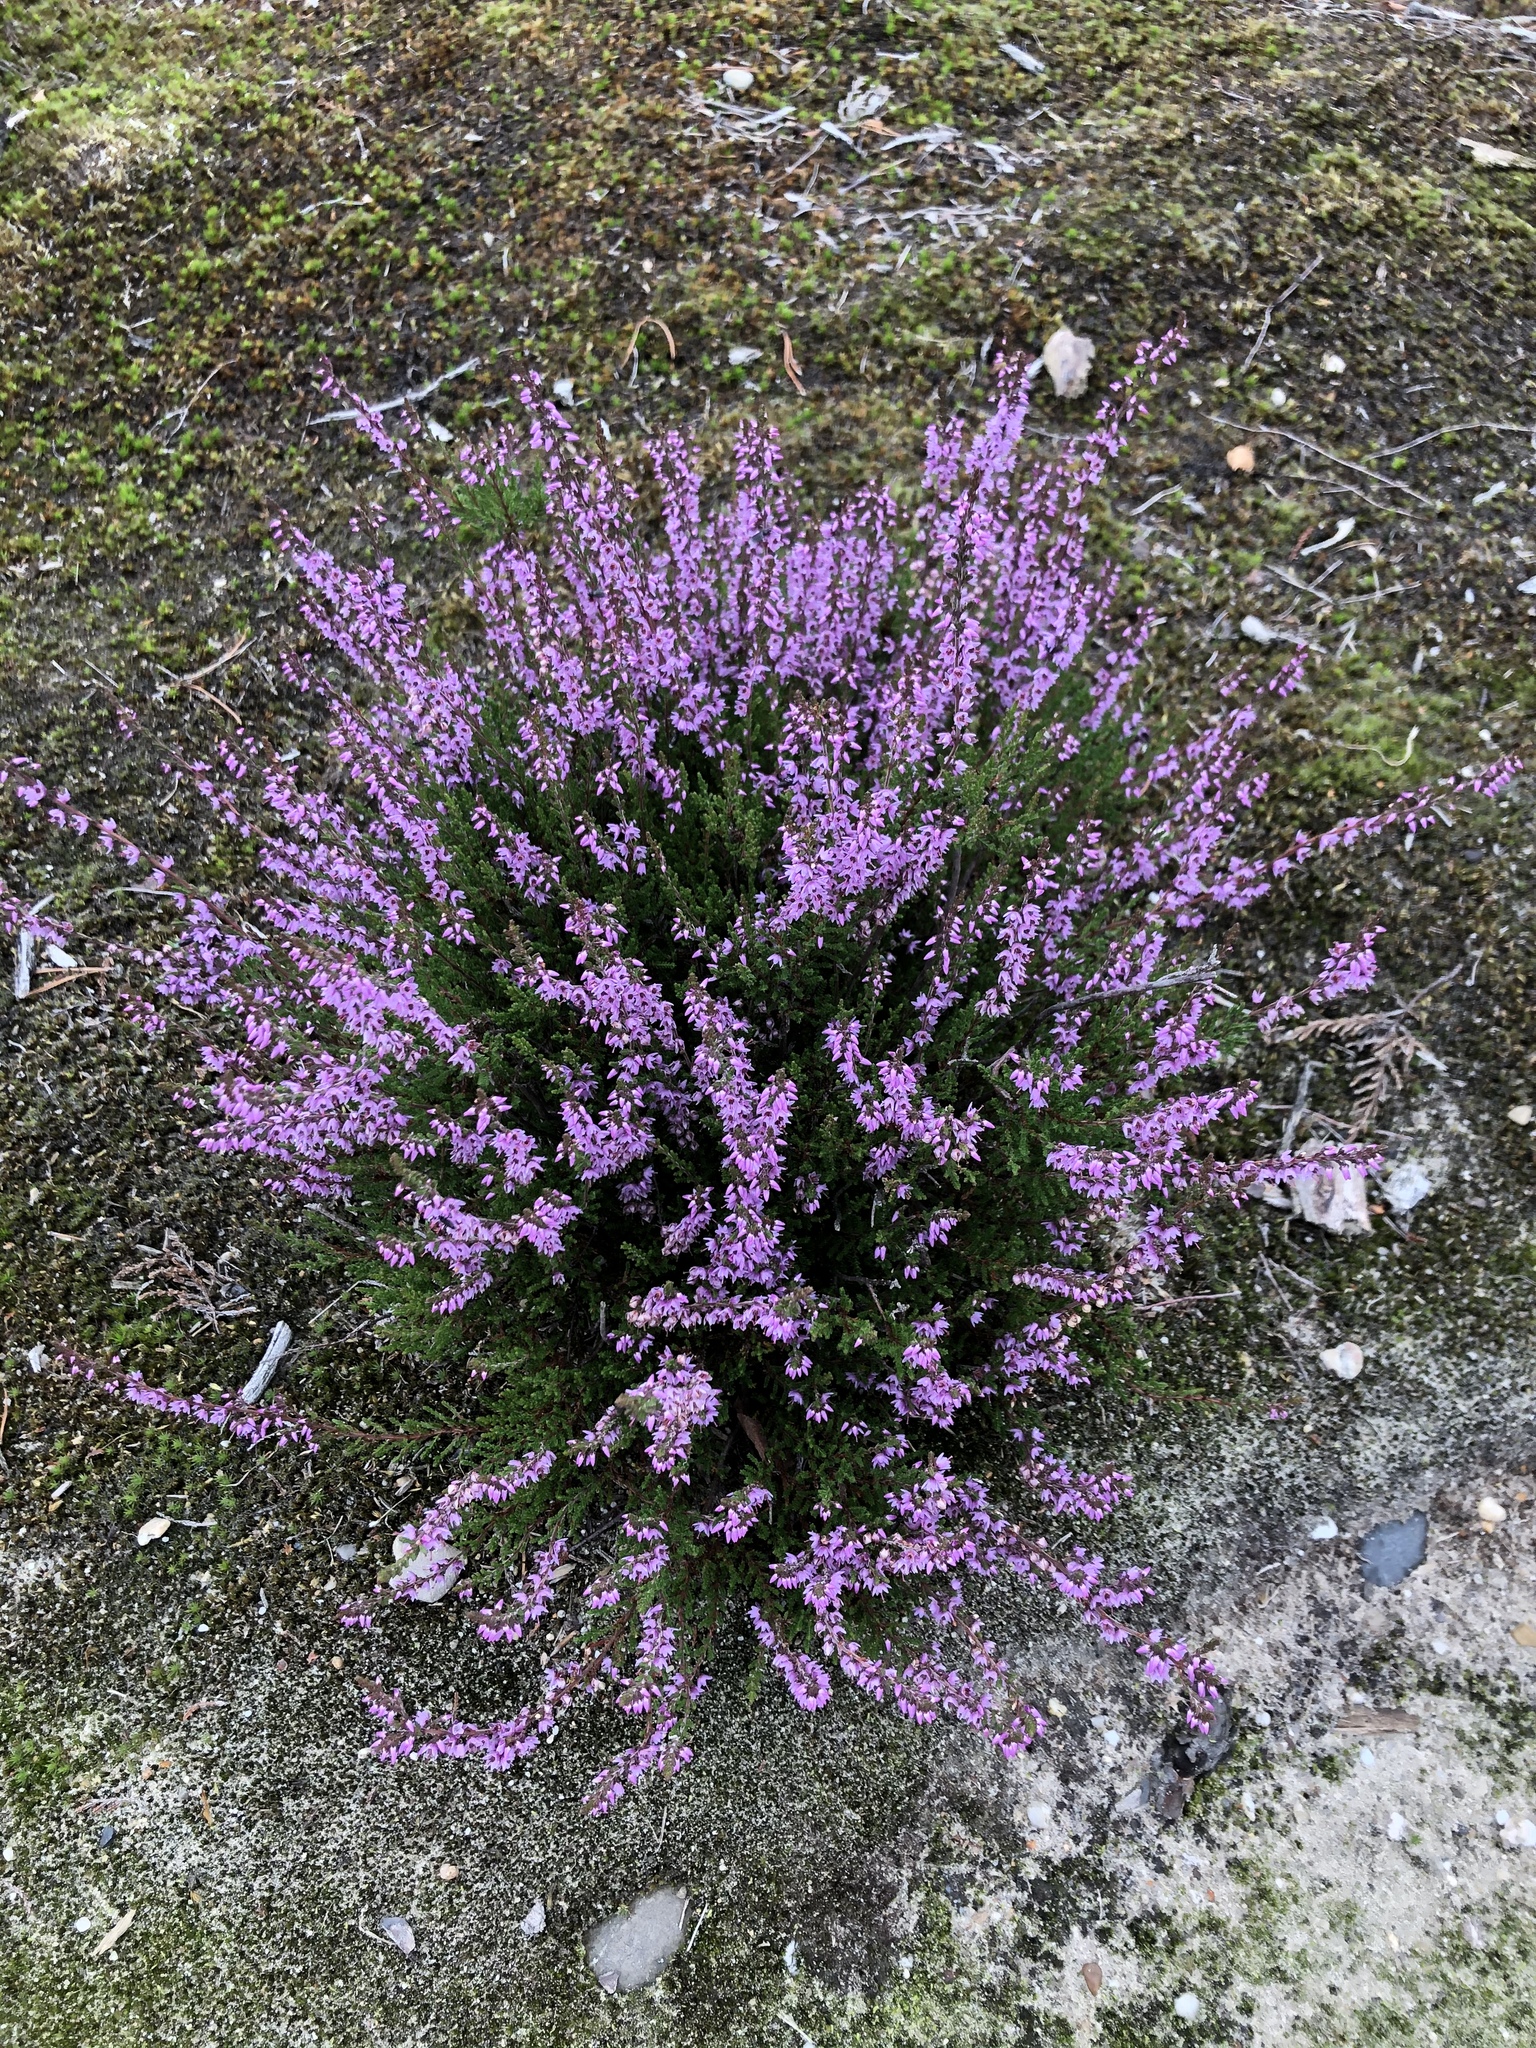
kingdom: Plantae
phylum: Tracheophyta
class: Magnoliopsida
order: Ericales
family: Ericaceae
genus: Calluna
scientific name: Calluna vulgaris
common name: Heather
